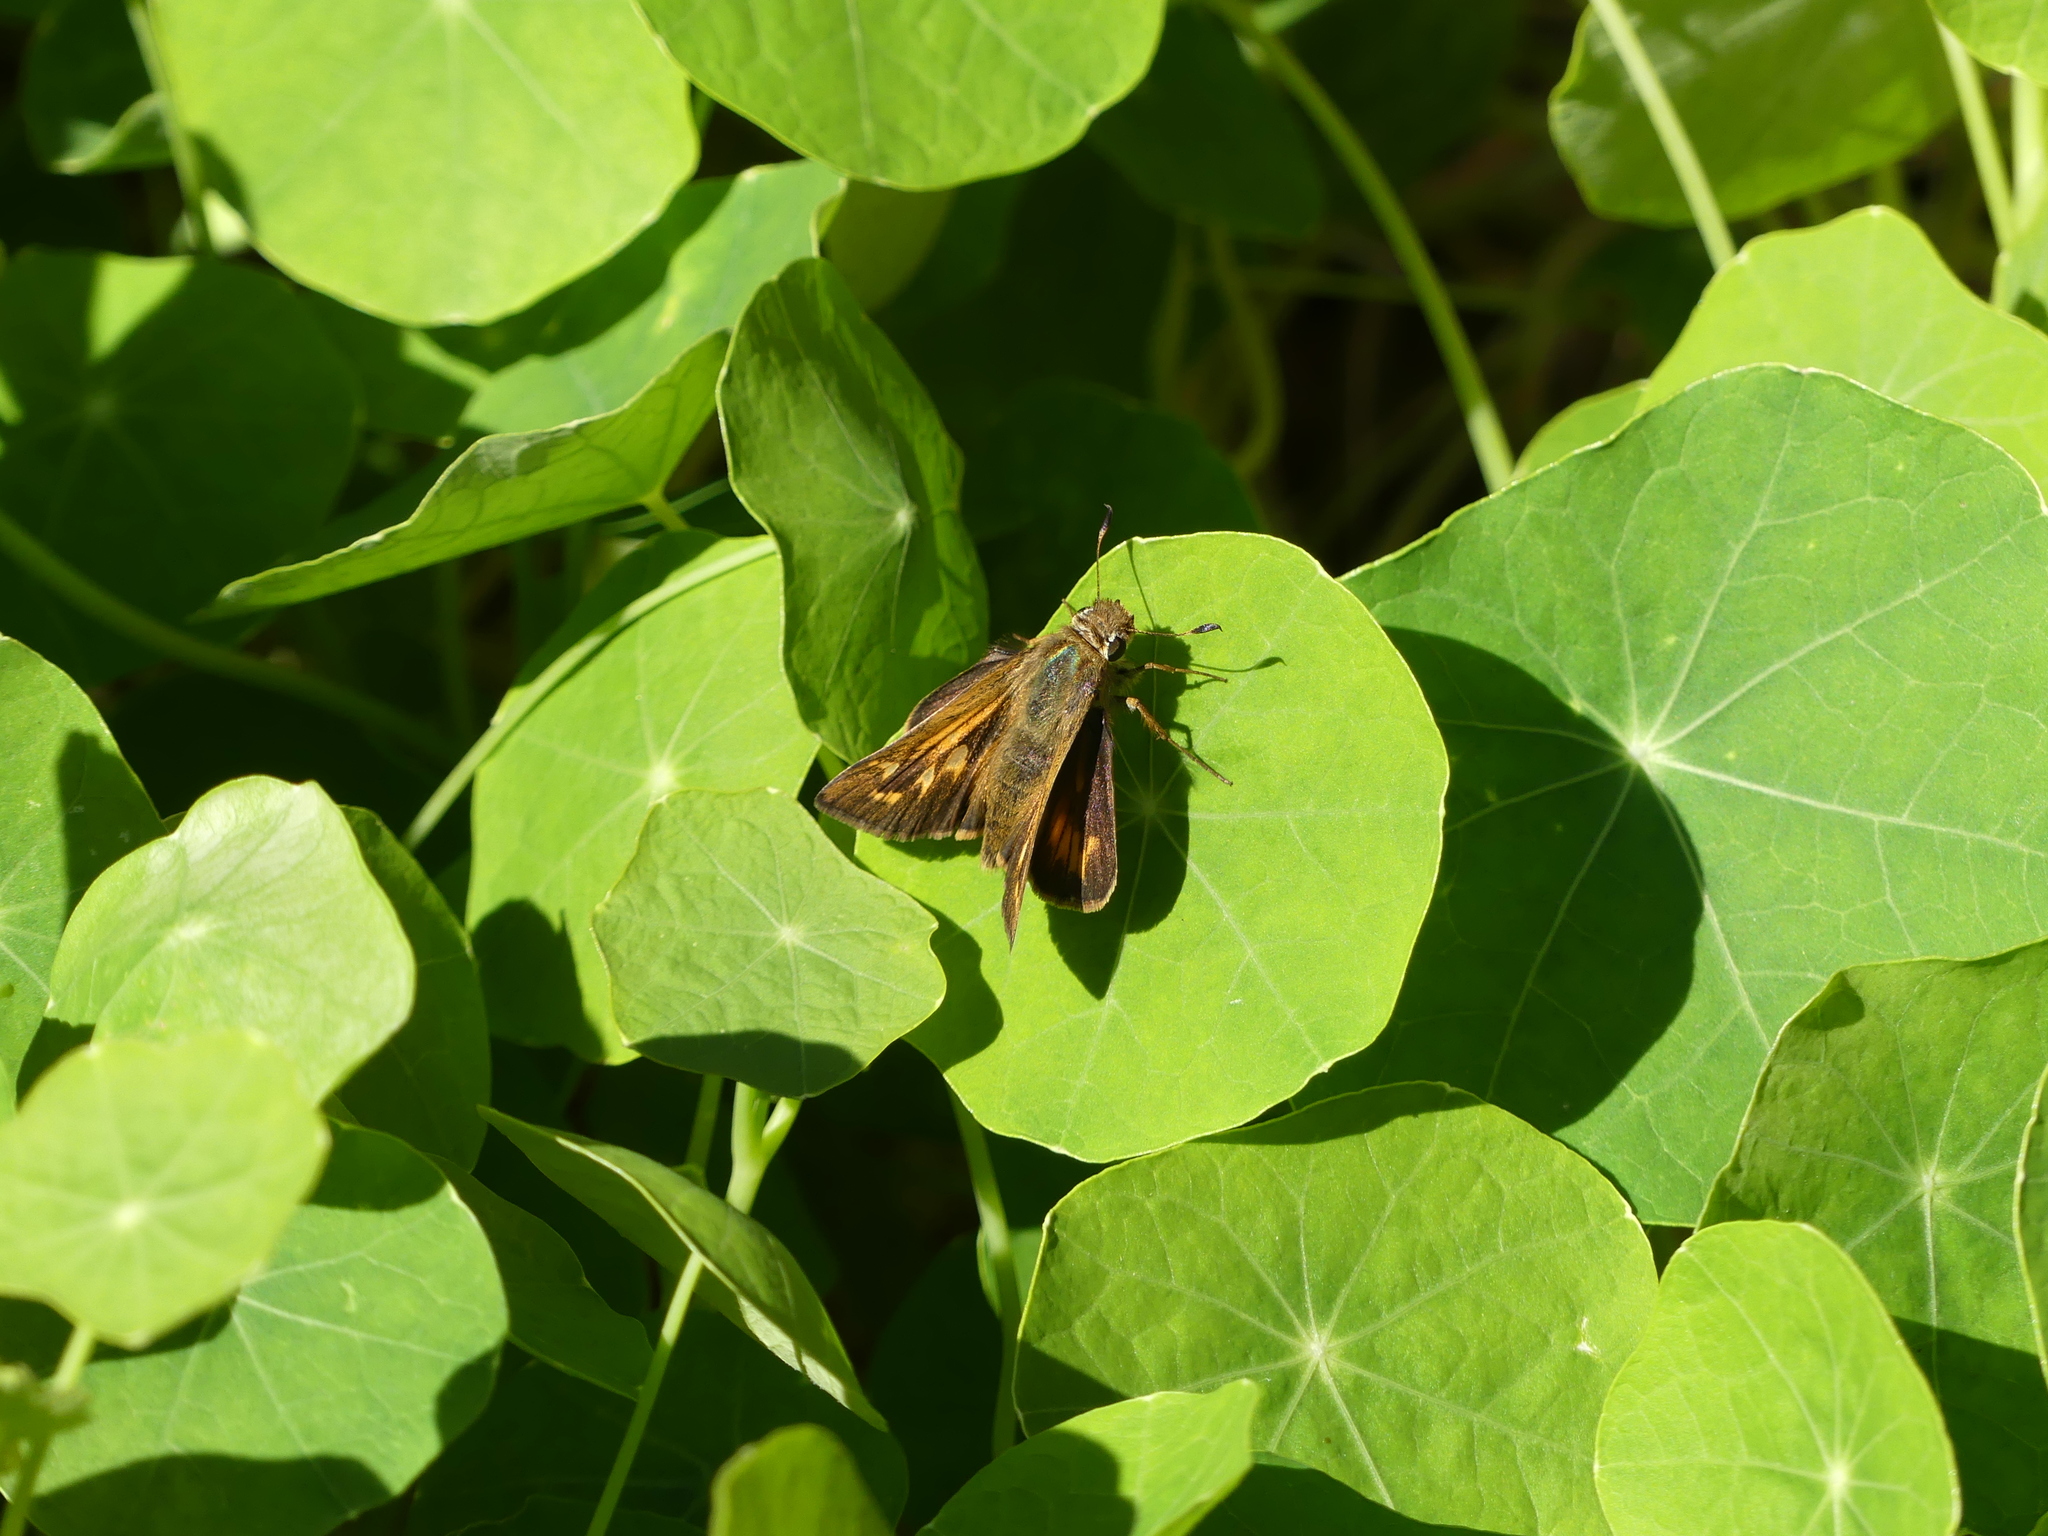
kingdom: Animalia
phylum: Arthropoda
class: Insecta
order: Lepidoptera
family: Hesperiidae
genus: Atalopedes
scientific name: Atalopedes
